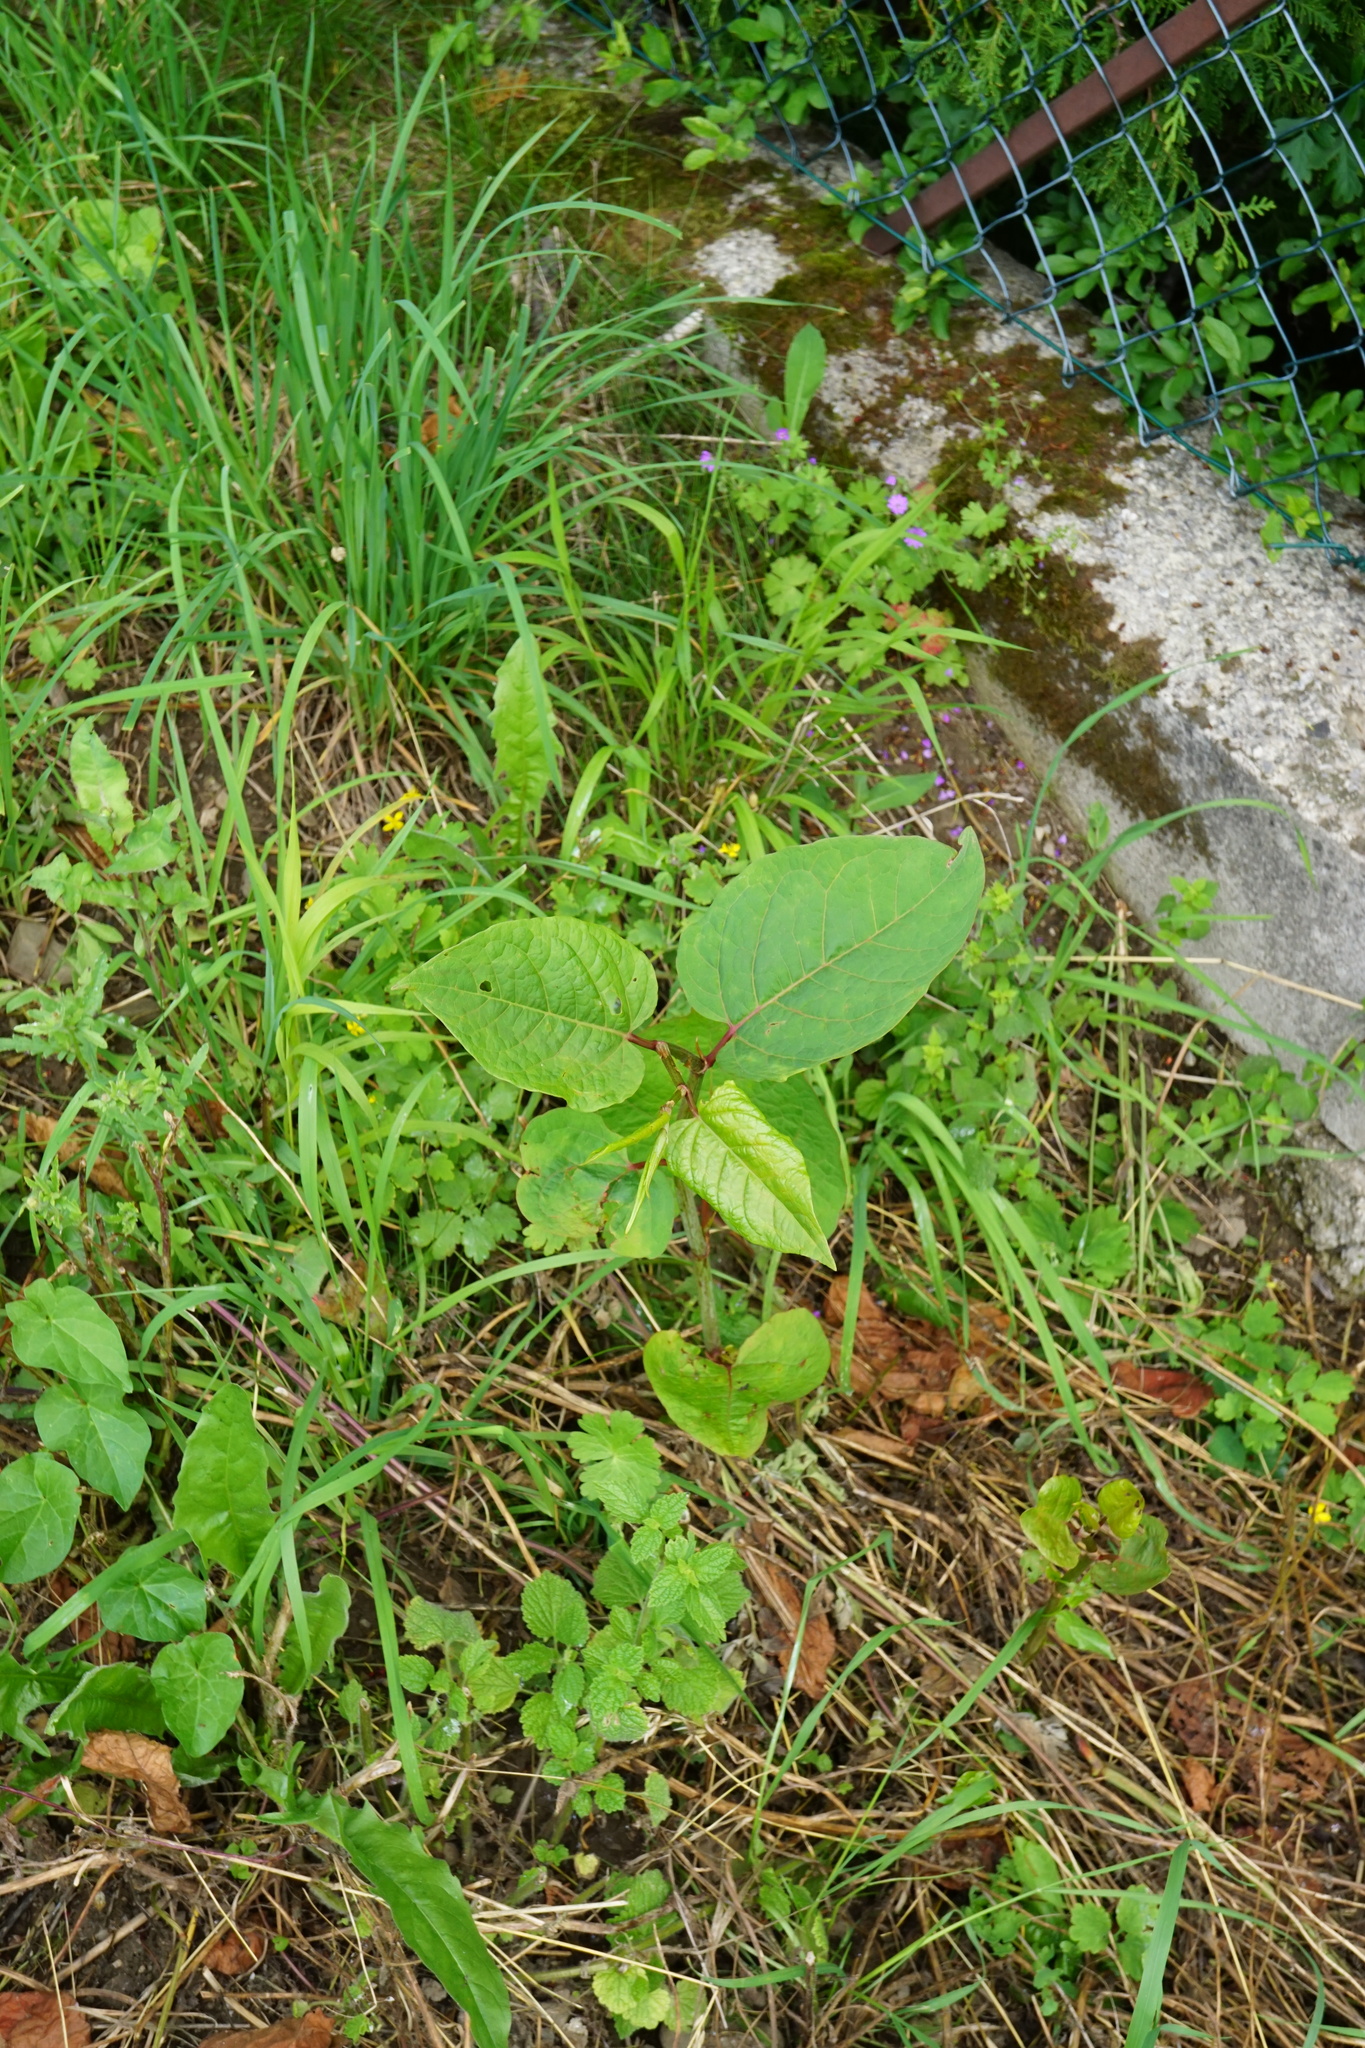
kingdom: Plantae
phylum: Tracheophyta
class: Magnoliopsida
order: Caryophyllales
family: Polygonaceae
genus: Reynoutria
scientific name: Reynoutria bohemica
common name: Bohemian knotweed
